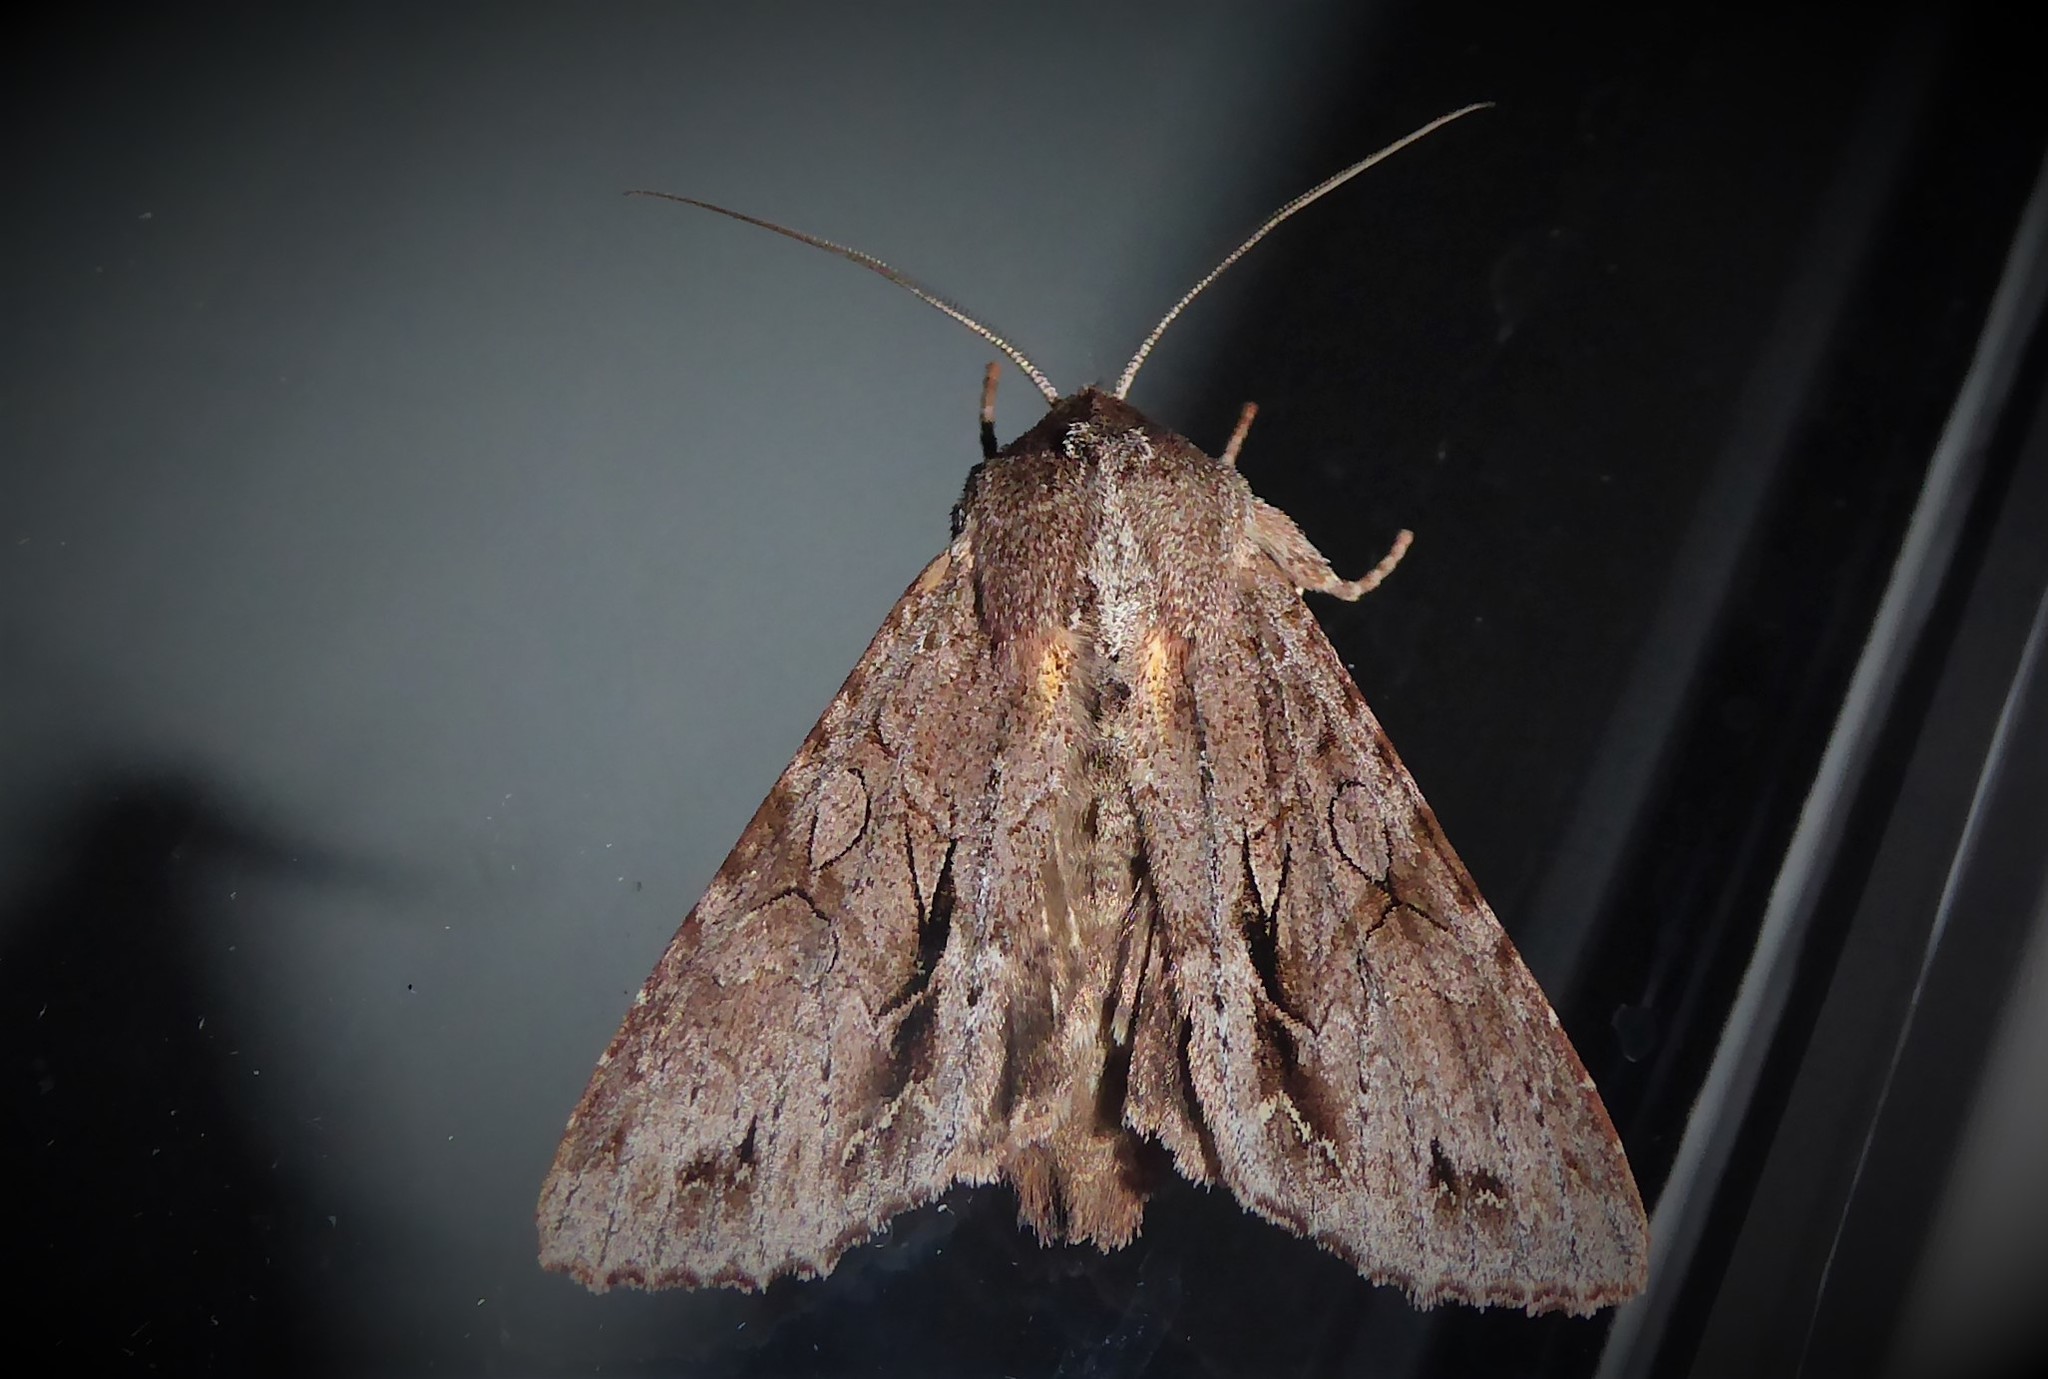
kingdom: Animalia
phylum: Arthropoda
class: Insecta
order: Lepidoptera
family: Noctuidae
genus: Ichneutica
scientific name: Ichneutica
